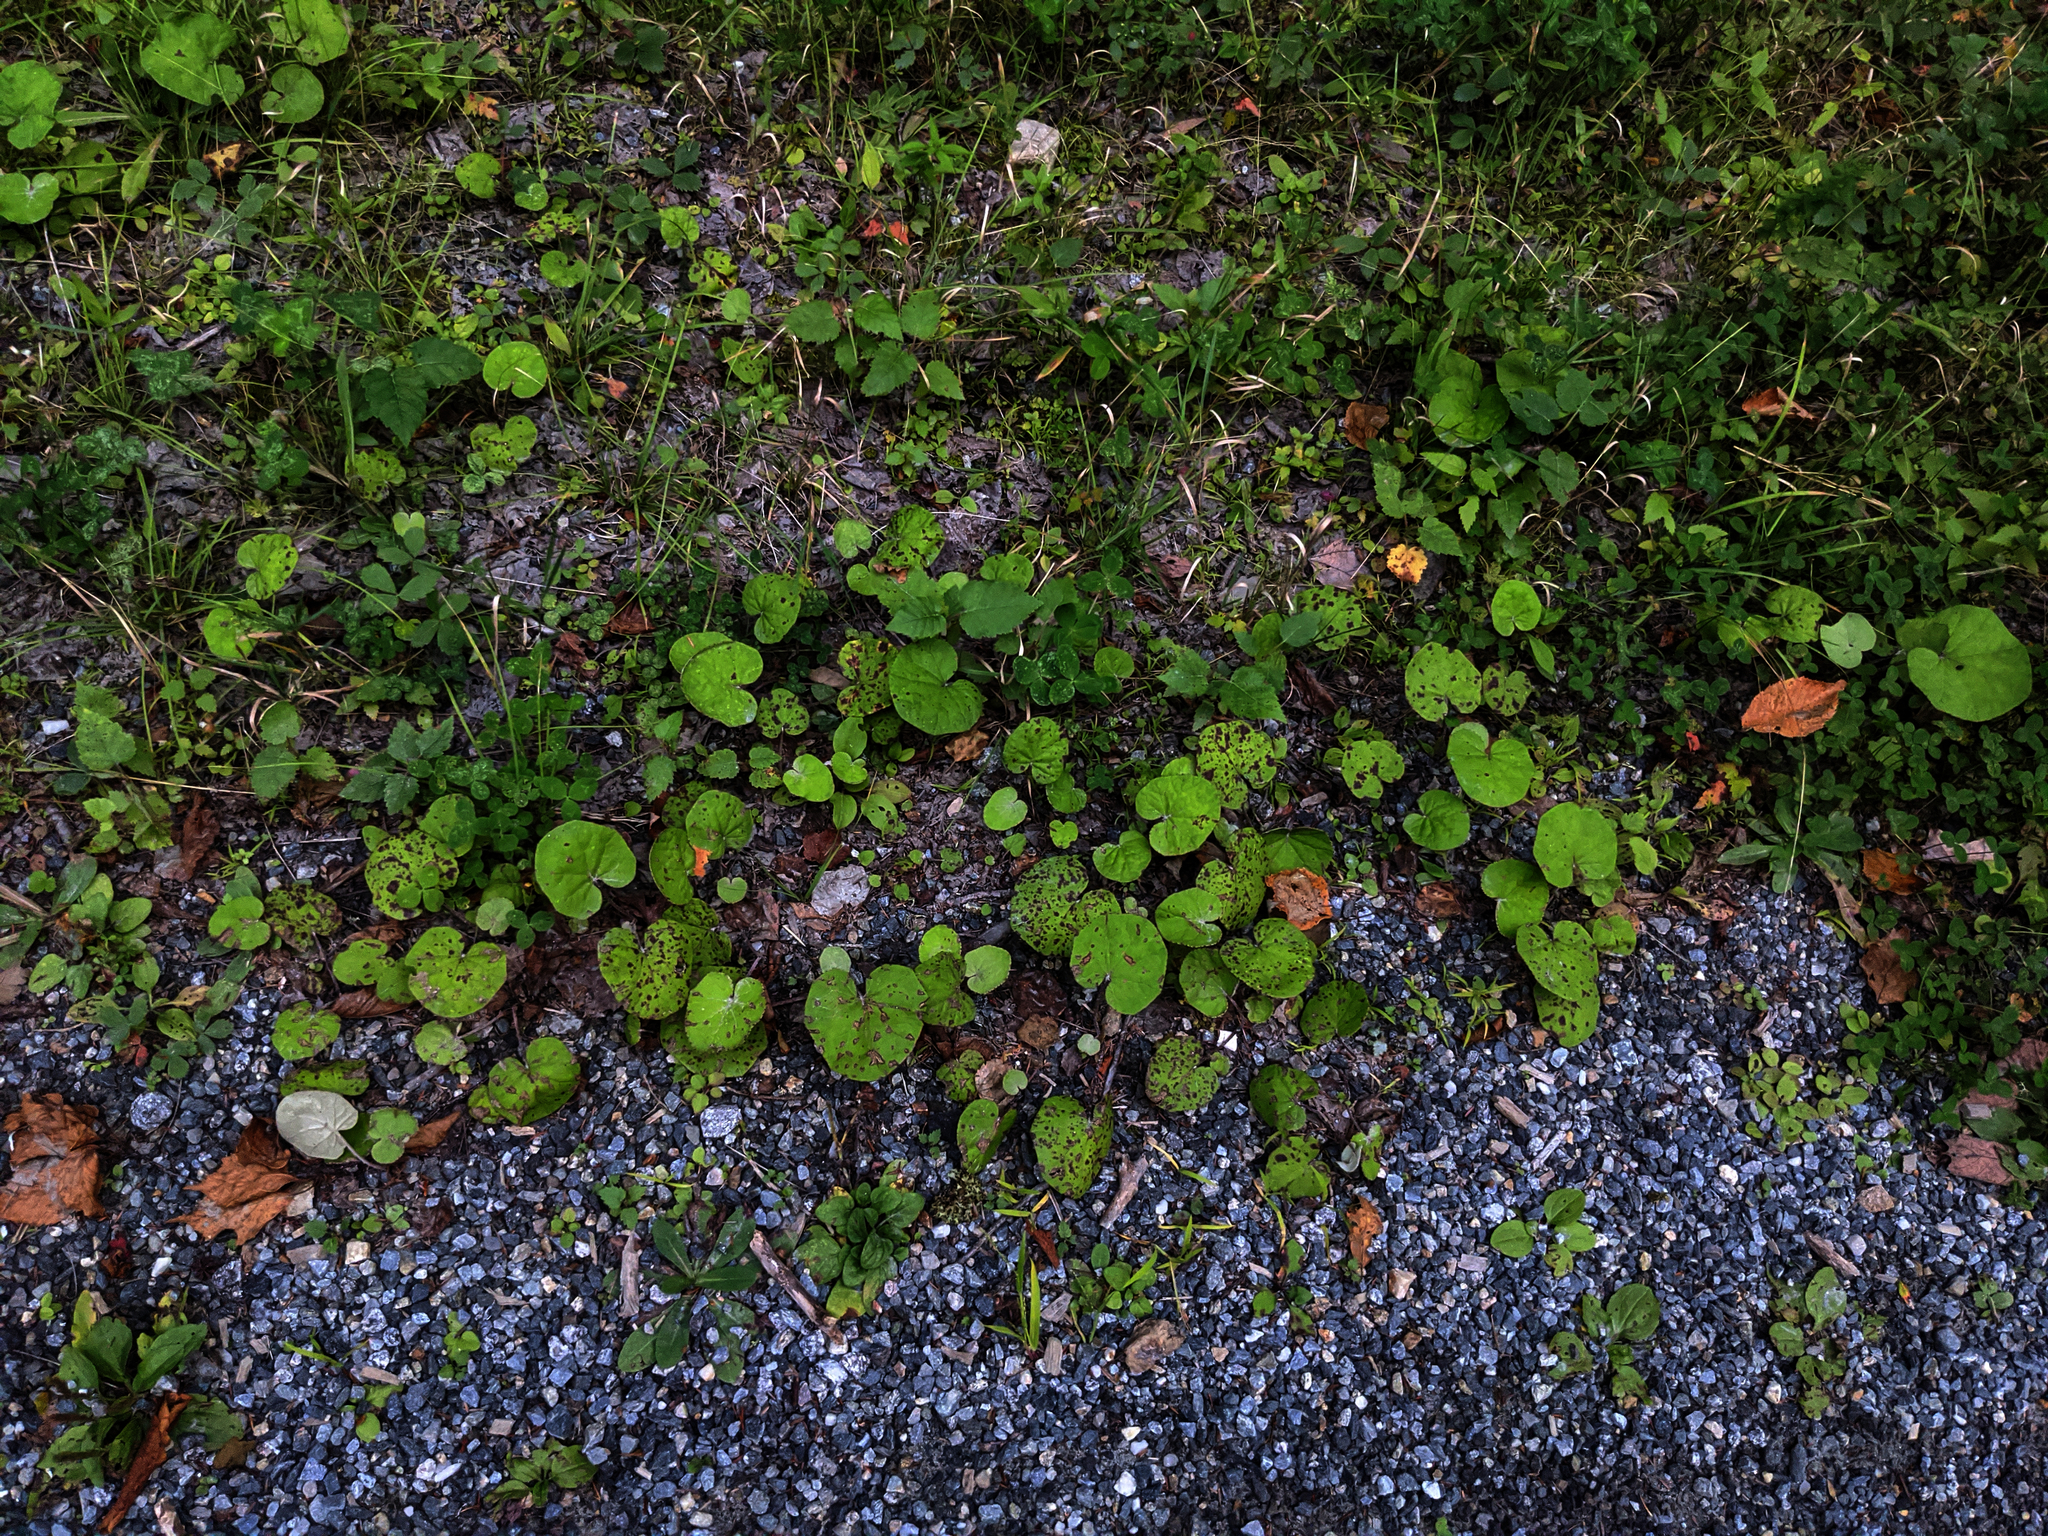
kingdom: Plantae
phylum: Tracheophyta
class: Magnoliopsida
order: Asterales
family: Asteraceae
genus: Tussilago
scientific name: Tussilago farfara
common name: Coltsfoot
